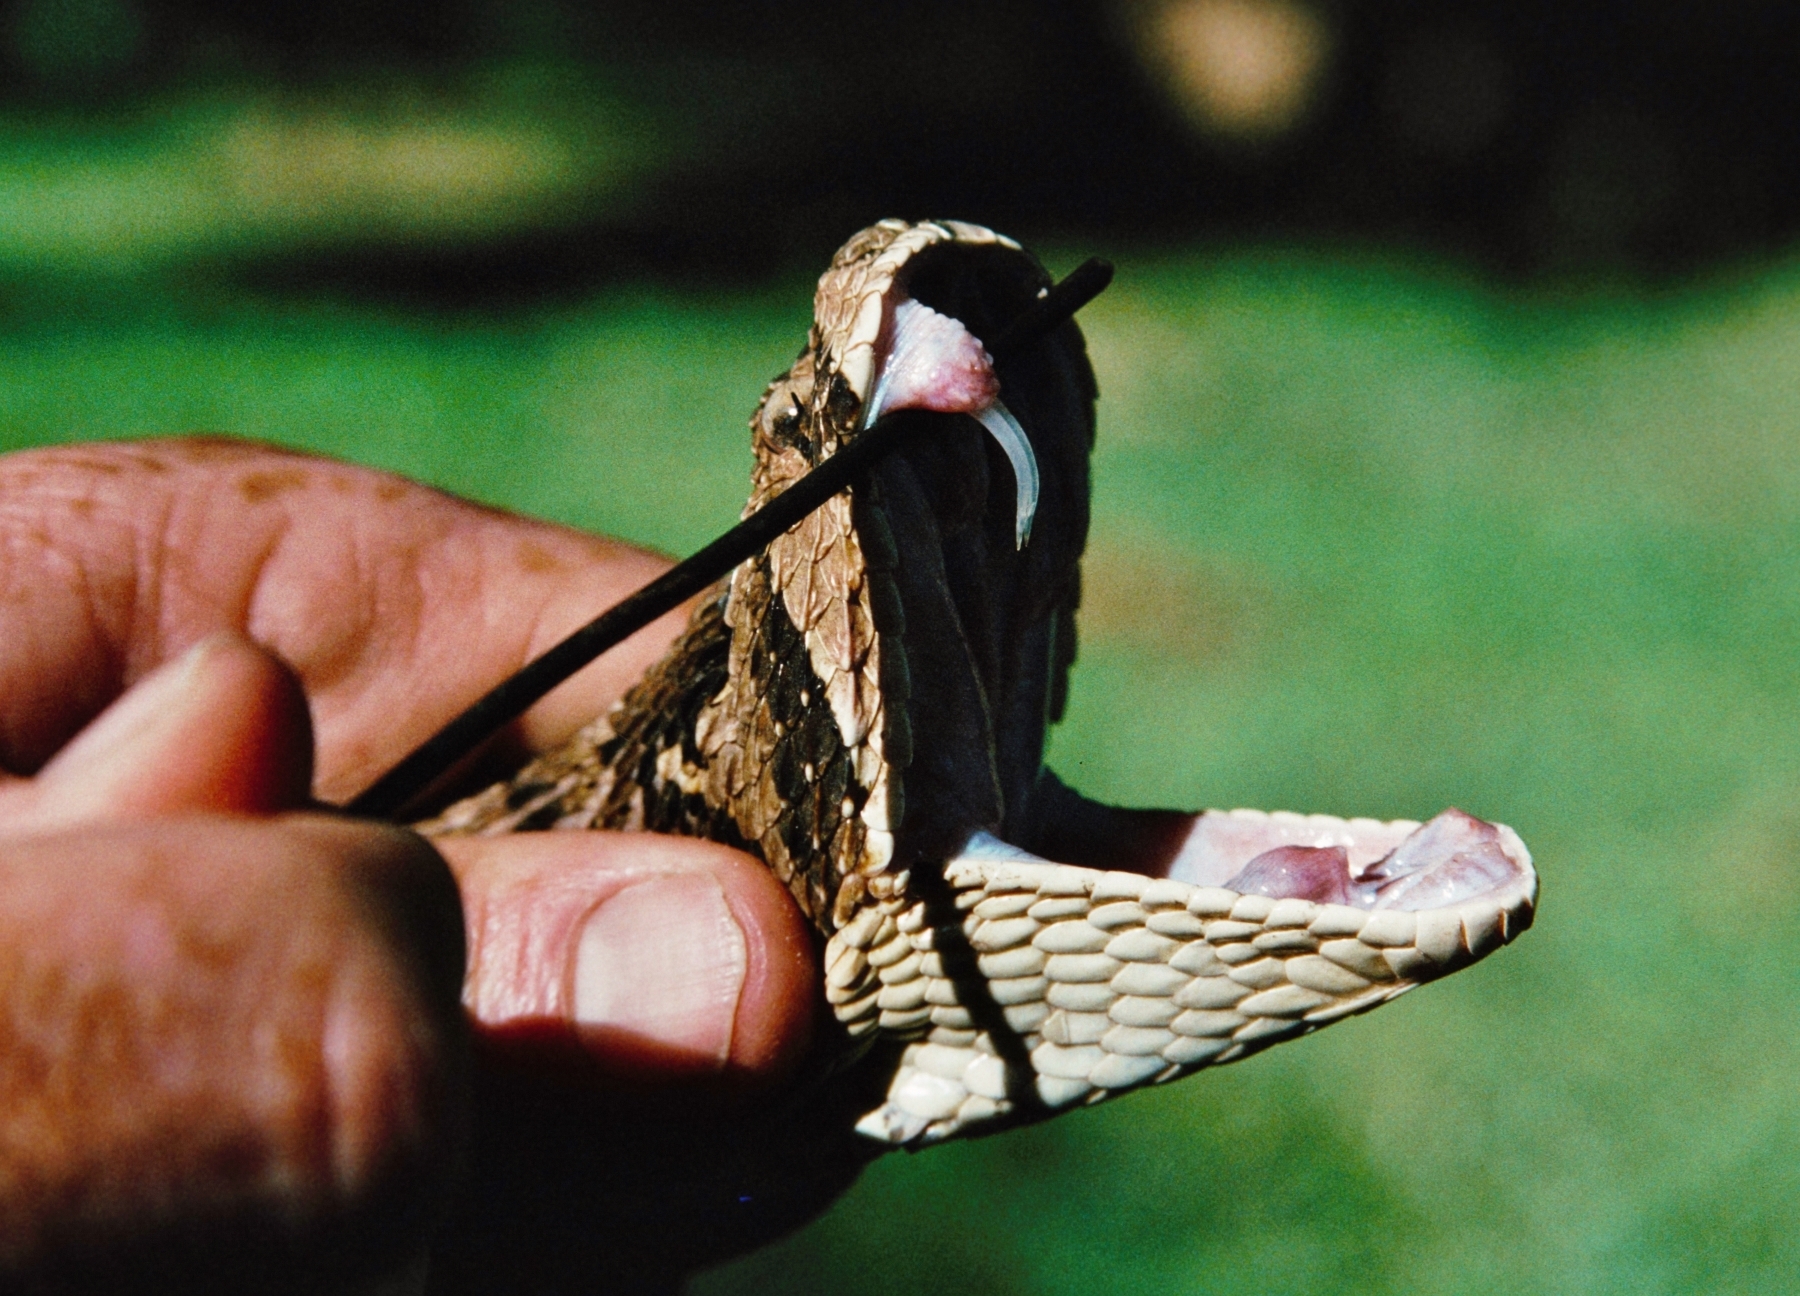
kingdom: Animalia
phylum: Chordata
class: Squamata
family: Viperidae
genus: Bitis
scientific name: Bitis arietans
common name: Puff adder
